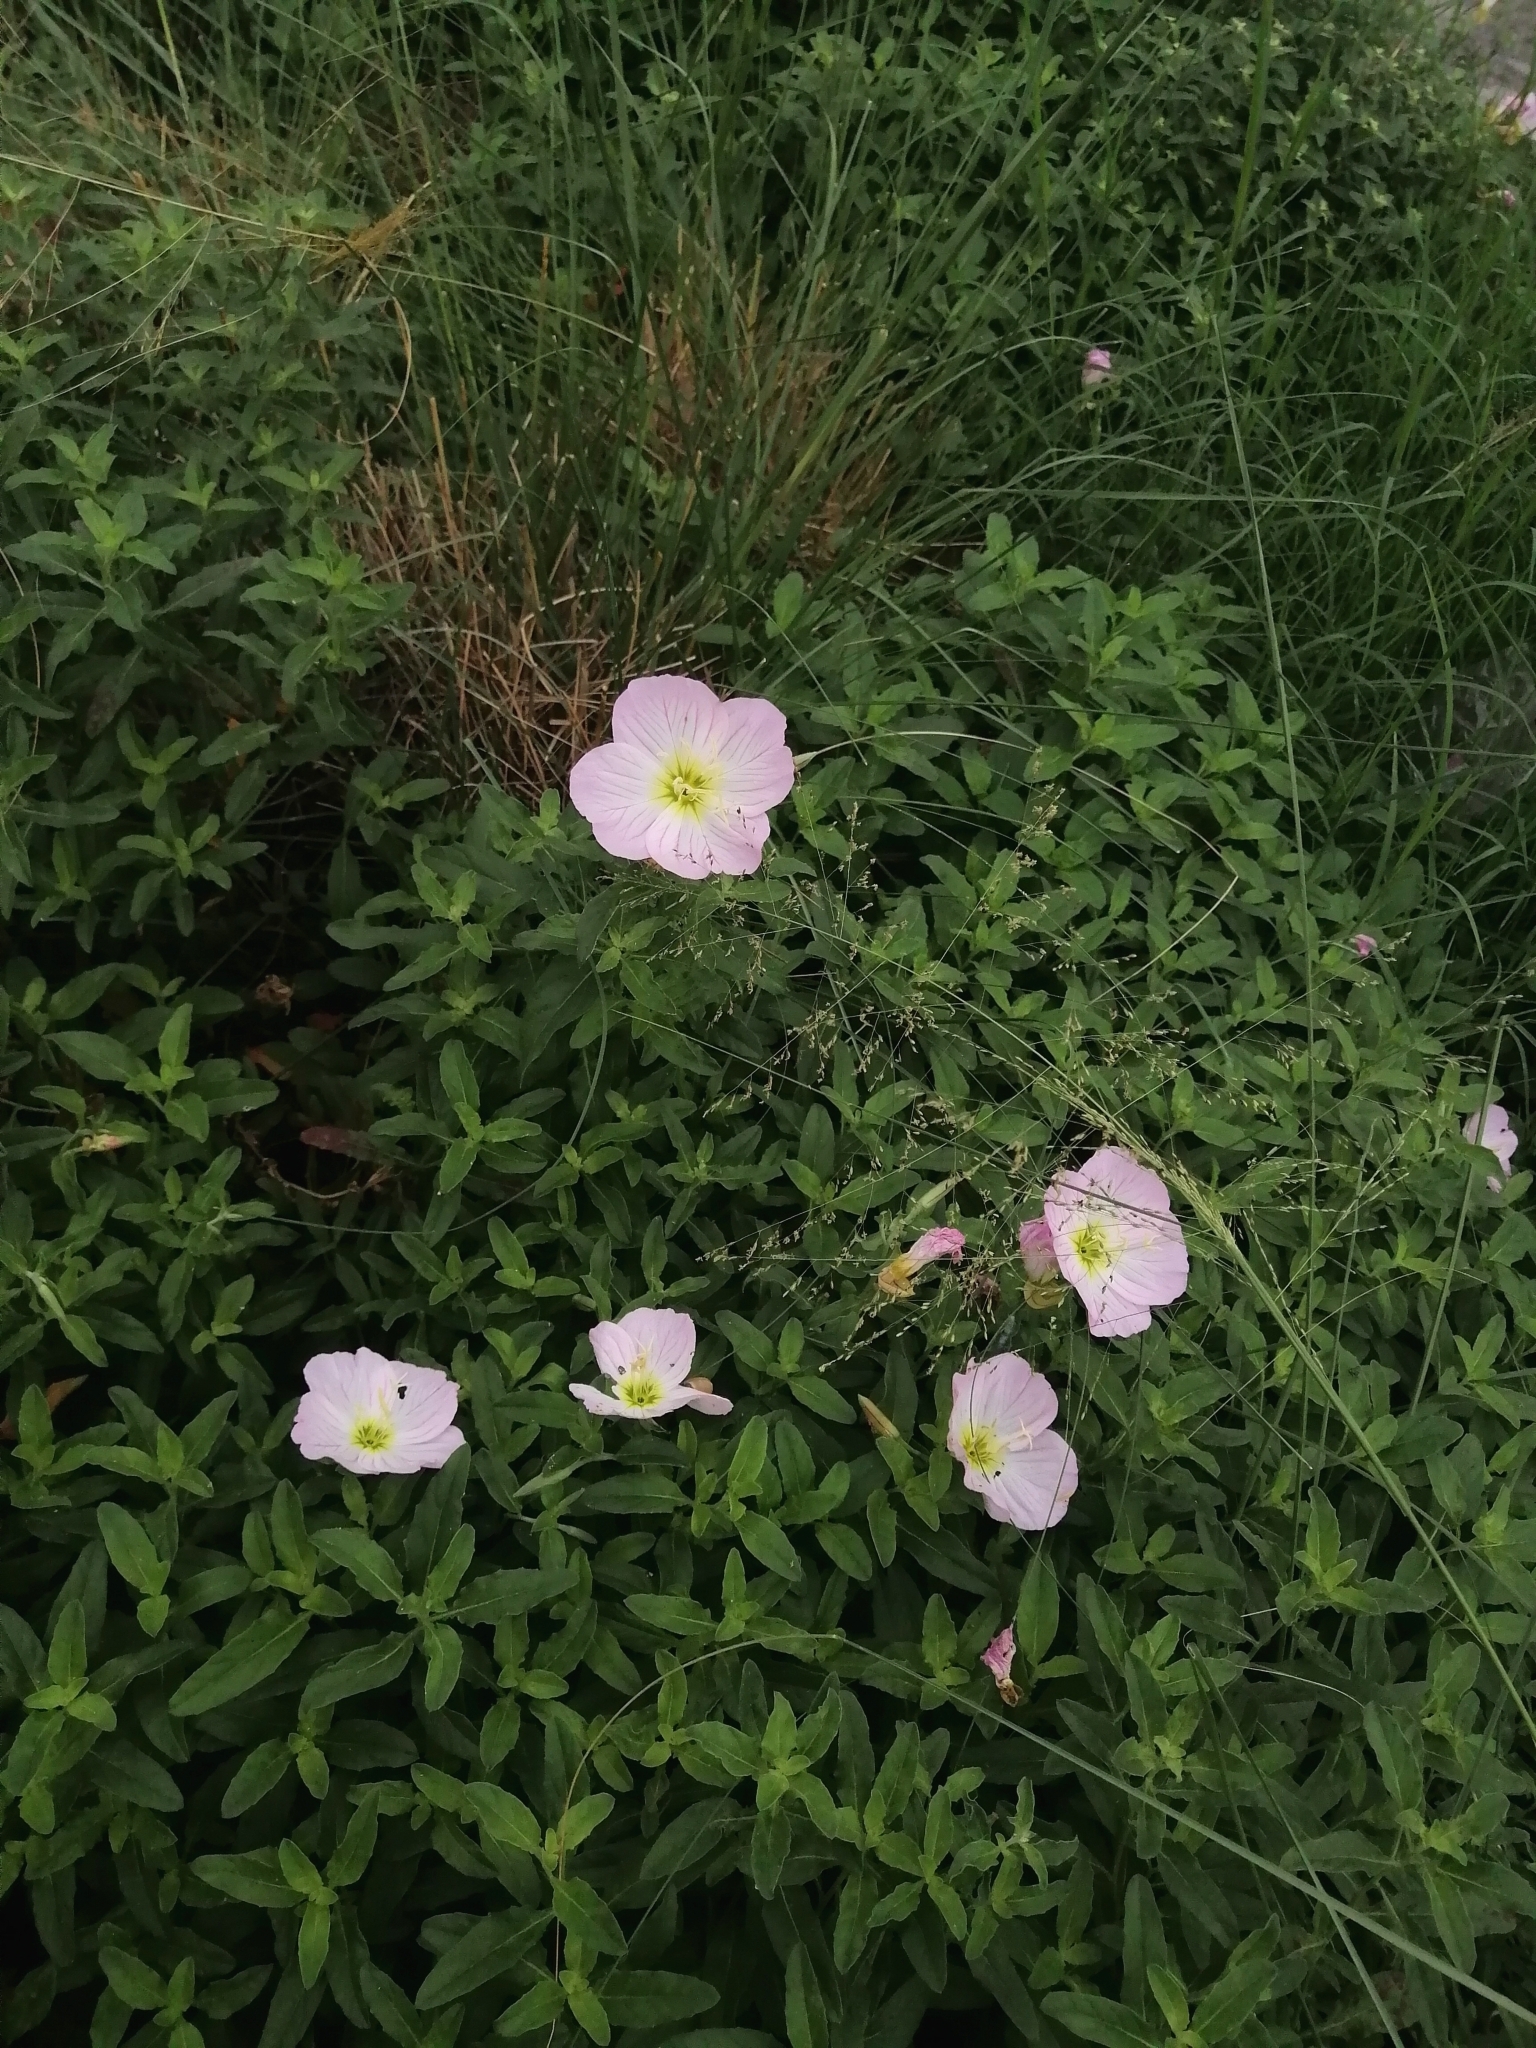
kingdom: Plantae
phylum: Tracheophyta
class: Magnoliopsida
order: Myrtales
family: Onagraceae
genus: Oenothera
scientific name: Oenothera speciosa
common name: White evening-primrose
